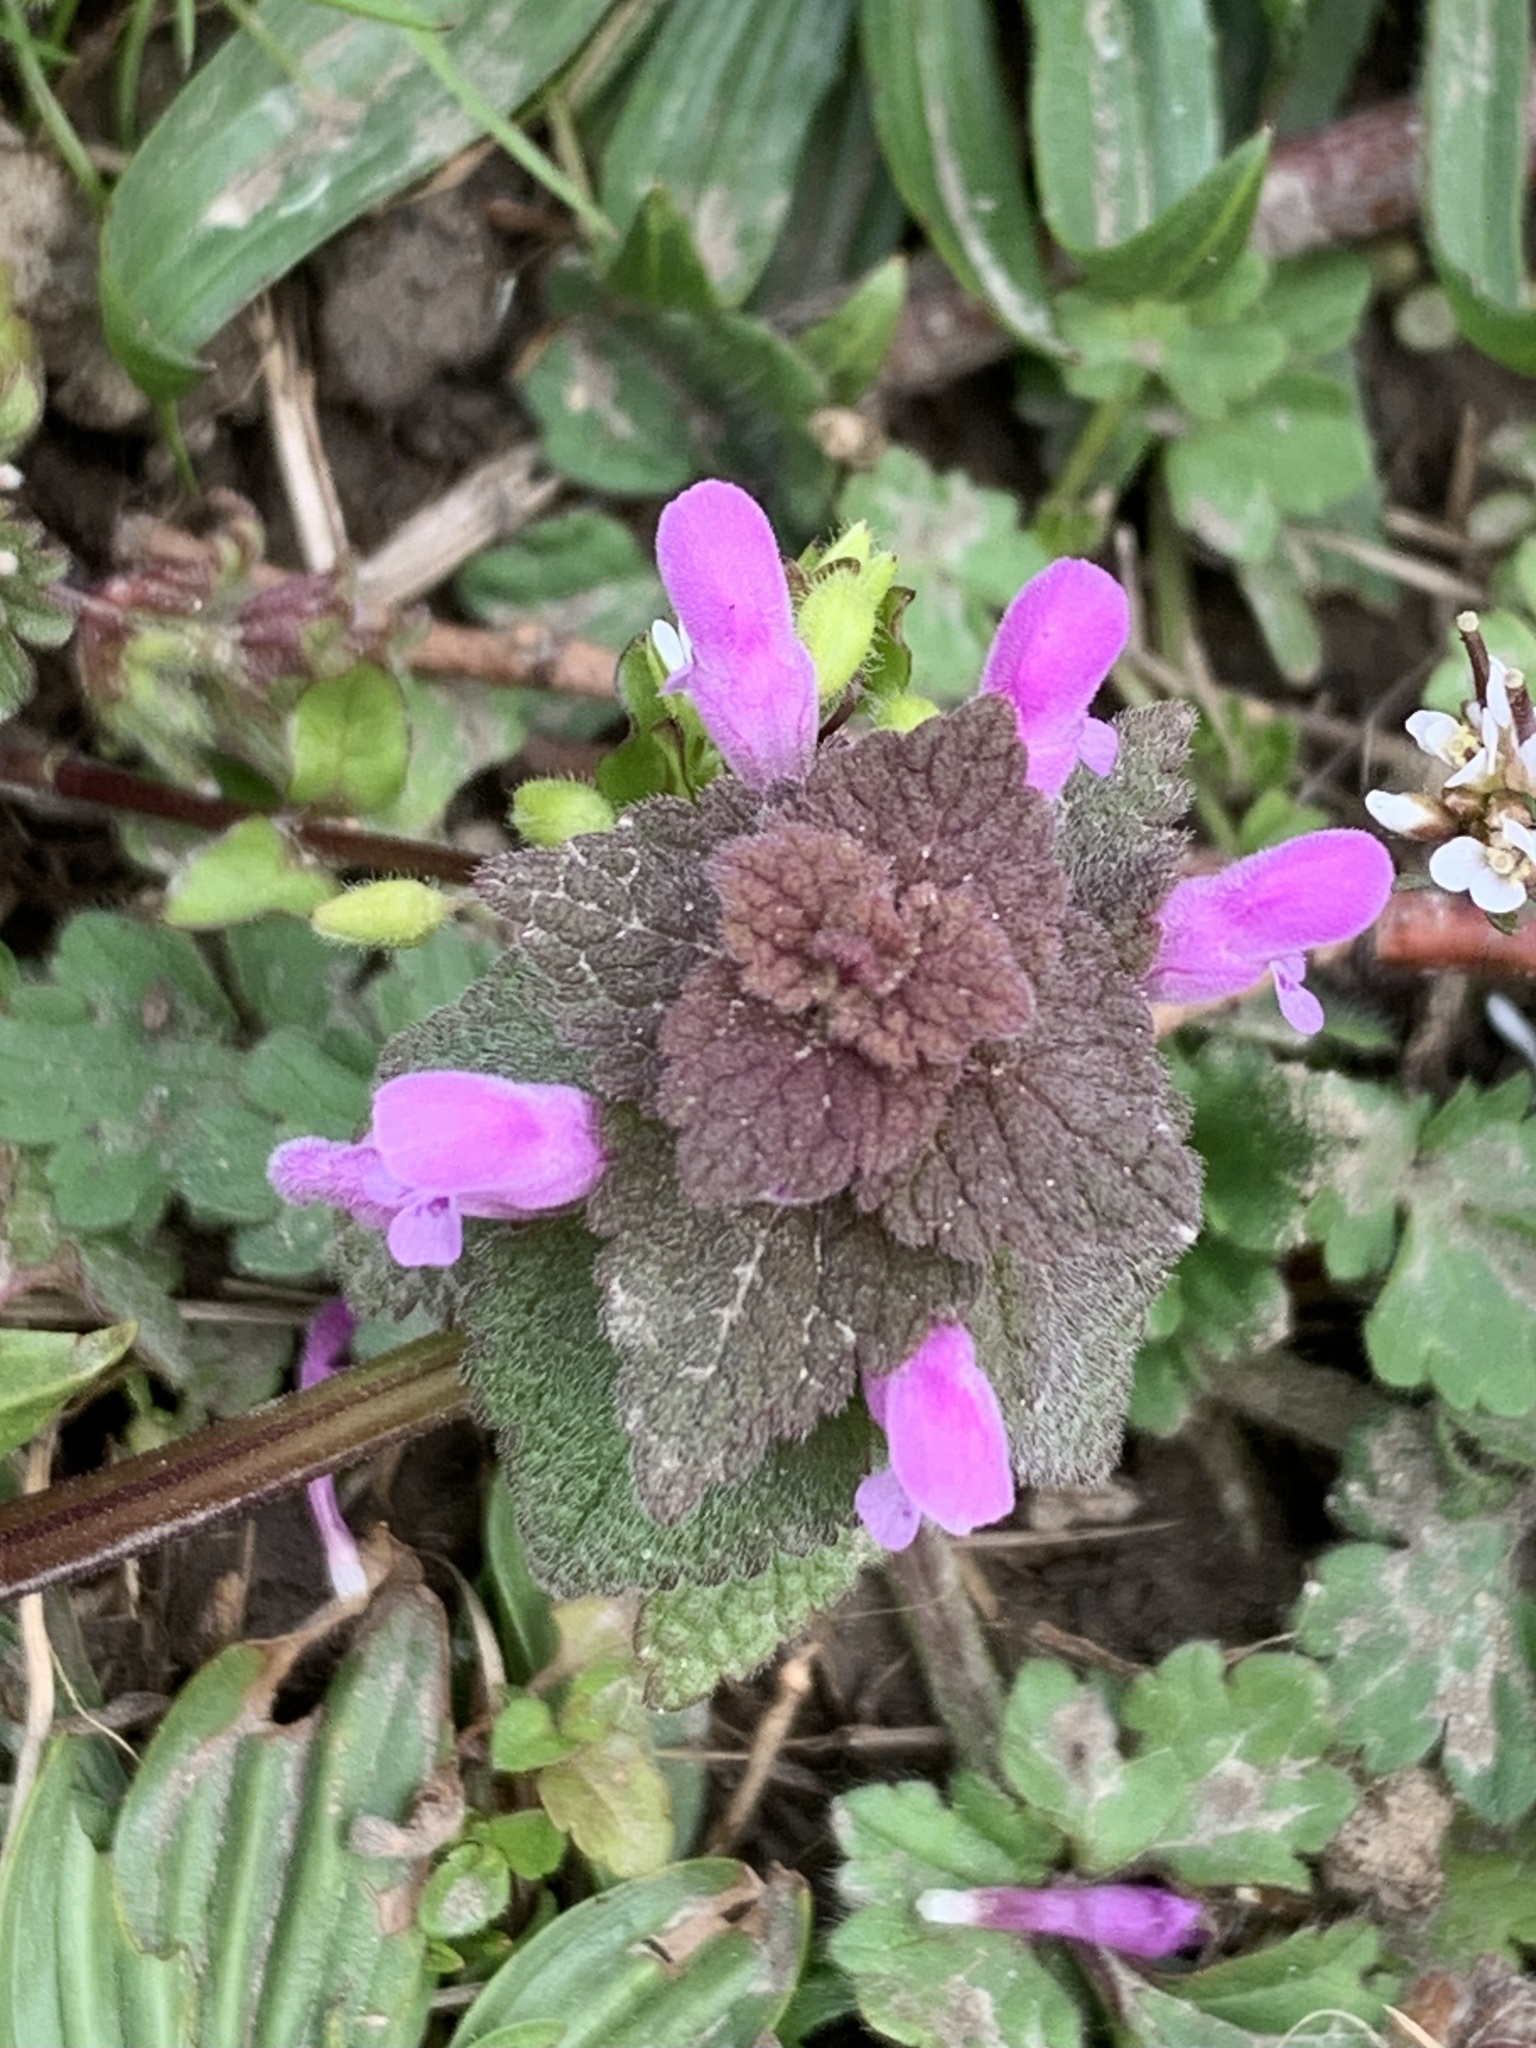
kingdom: Plantae
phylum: Tracheophyta
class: Magnoliopsida
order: Lamiales
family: Lamiaceae
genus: Lamium
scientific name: Lamium purpureum
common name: Red dead-nettle
